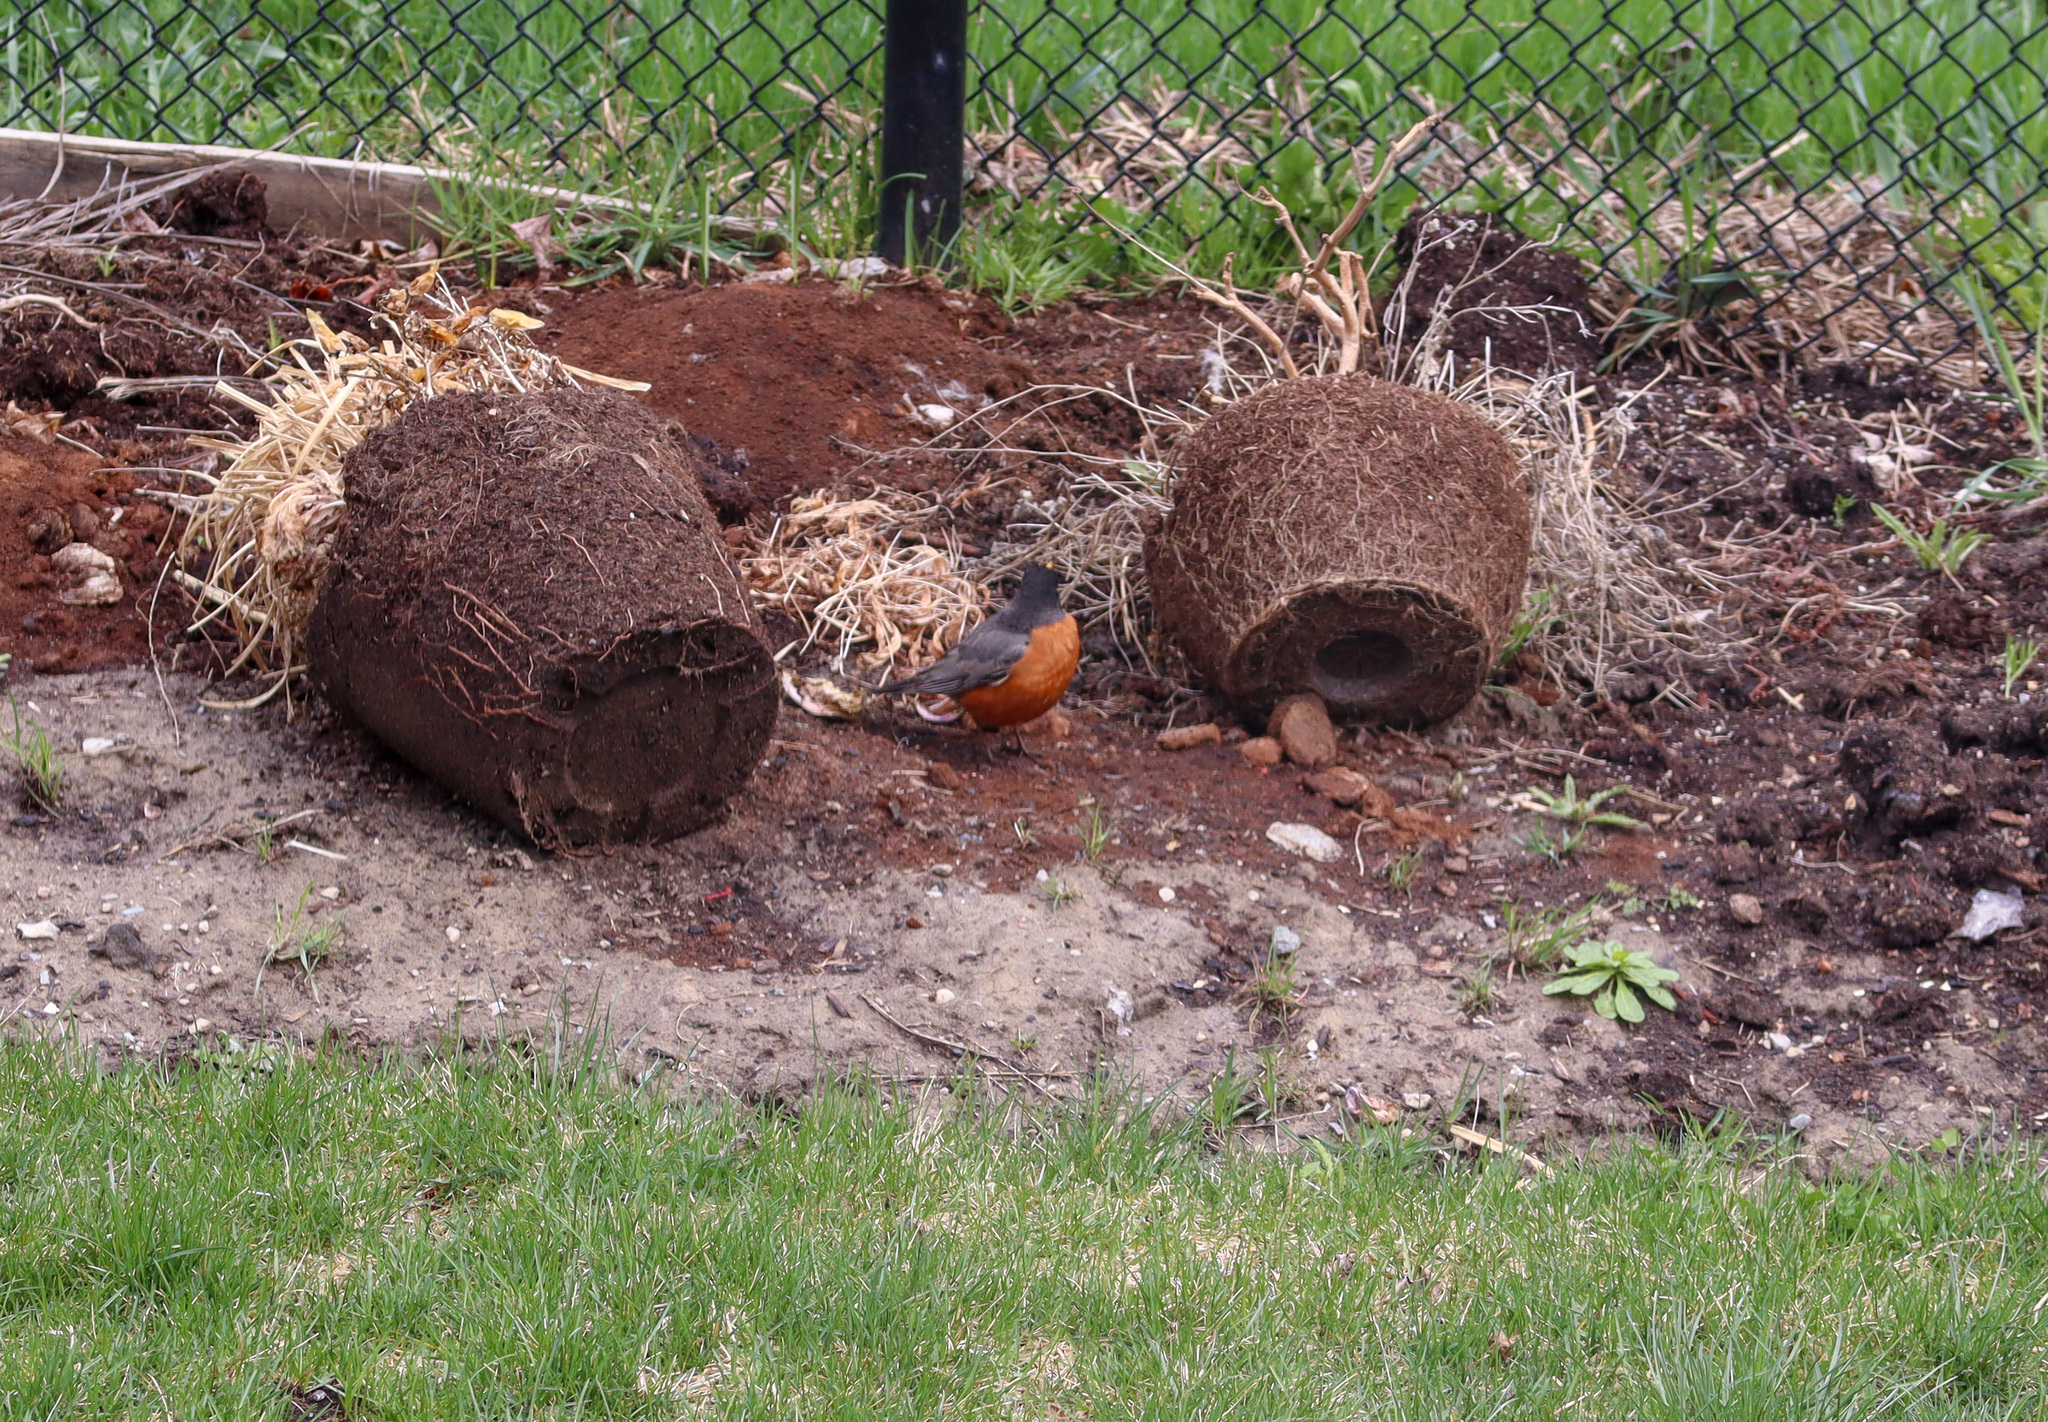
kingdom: Animalia
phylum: Chordata
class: Aves
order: Passeriformes
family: Turdidae
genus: Turdus
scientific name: Turdus migratorius
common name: American robin
